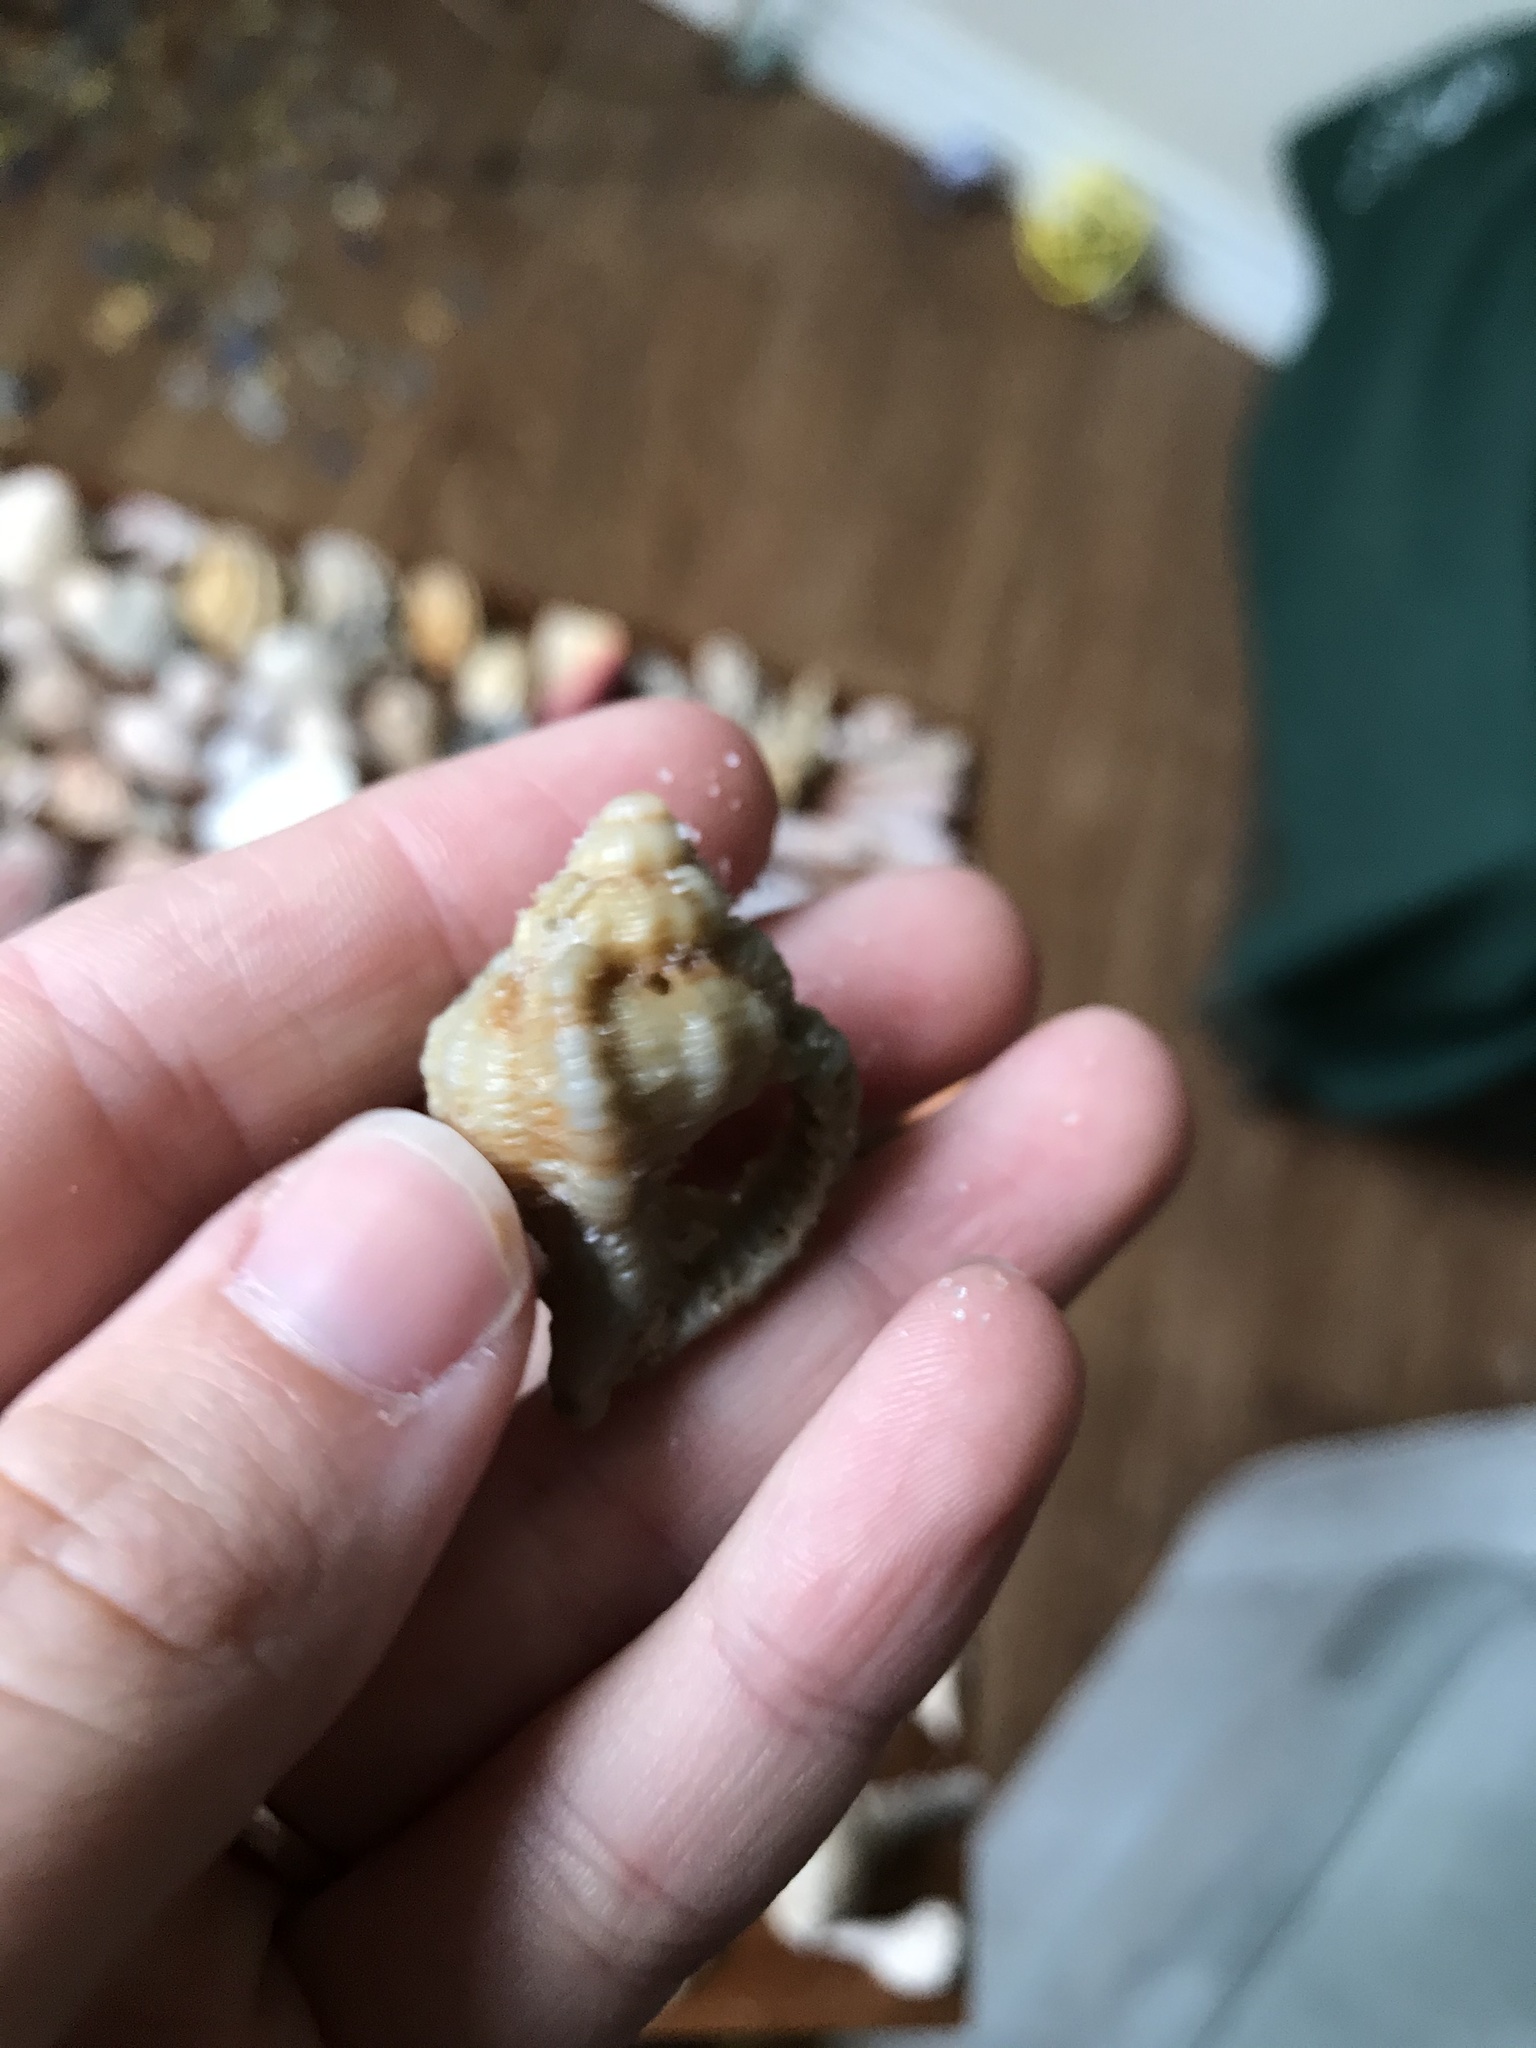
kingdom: Animalia
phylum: Mollusca
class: Gastropoda
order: Neogastropoda
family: Muricidae
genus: Phyllonotus
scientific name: Phyllonotus pomum
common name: Apple murex
